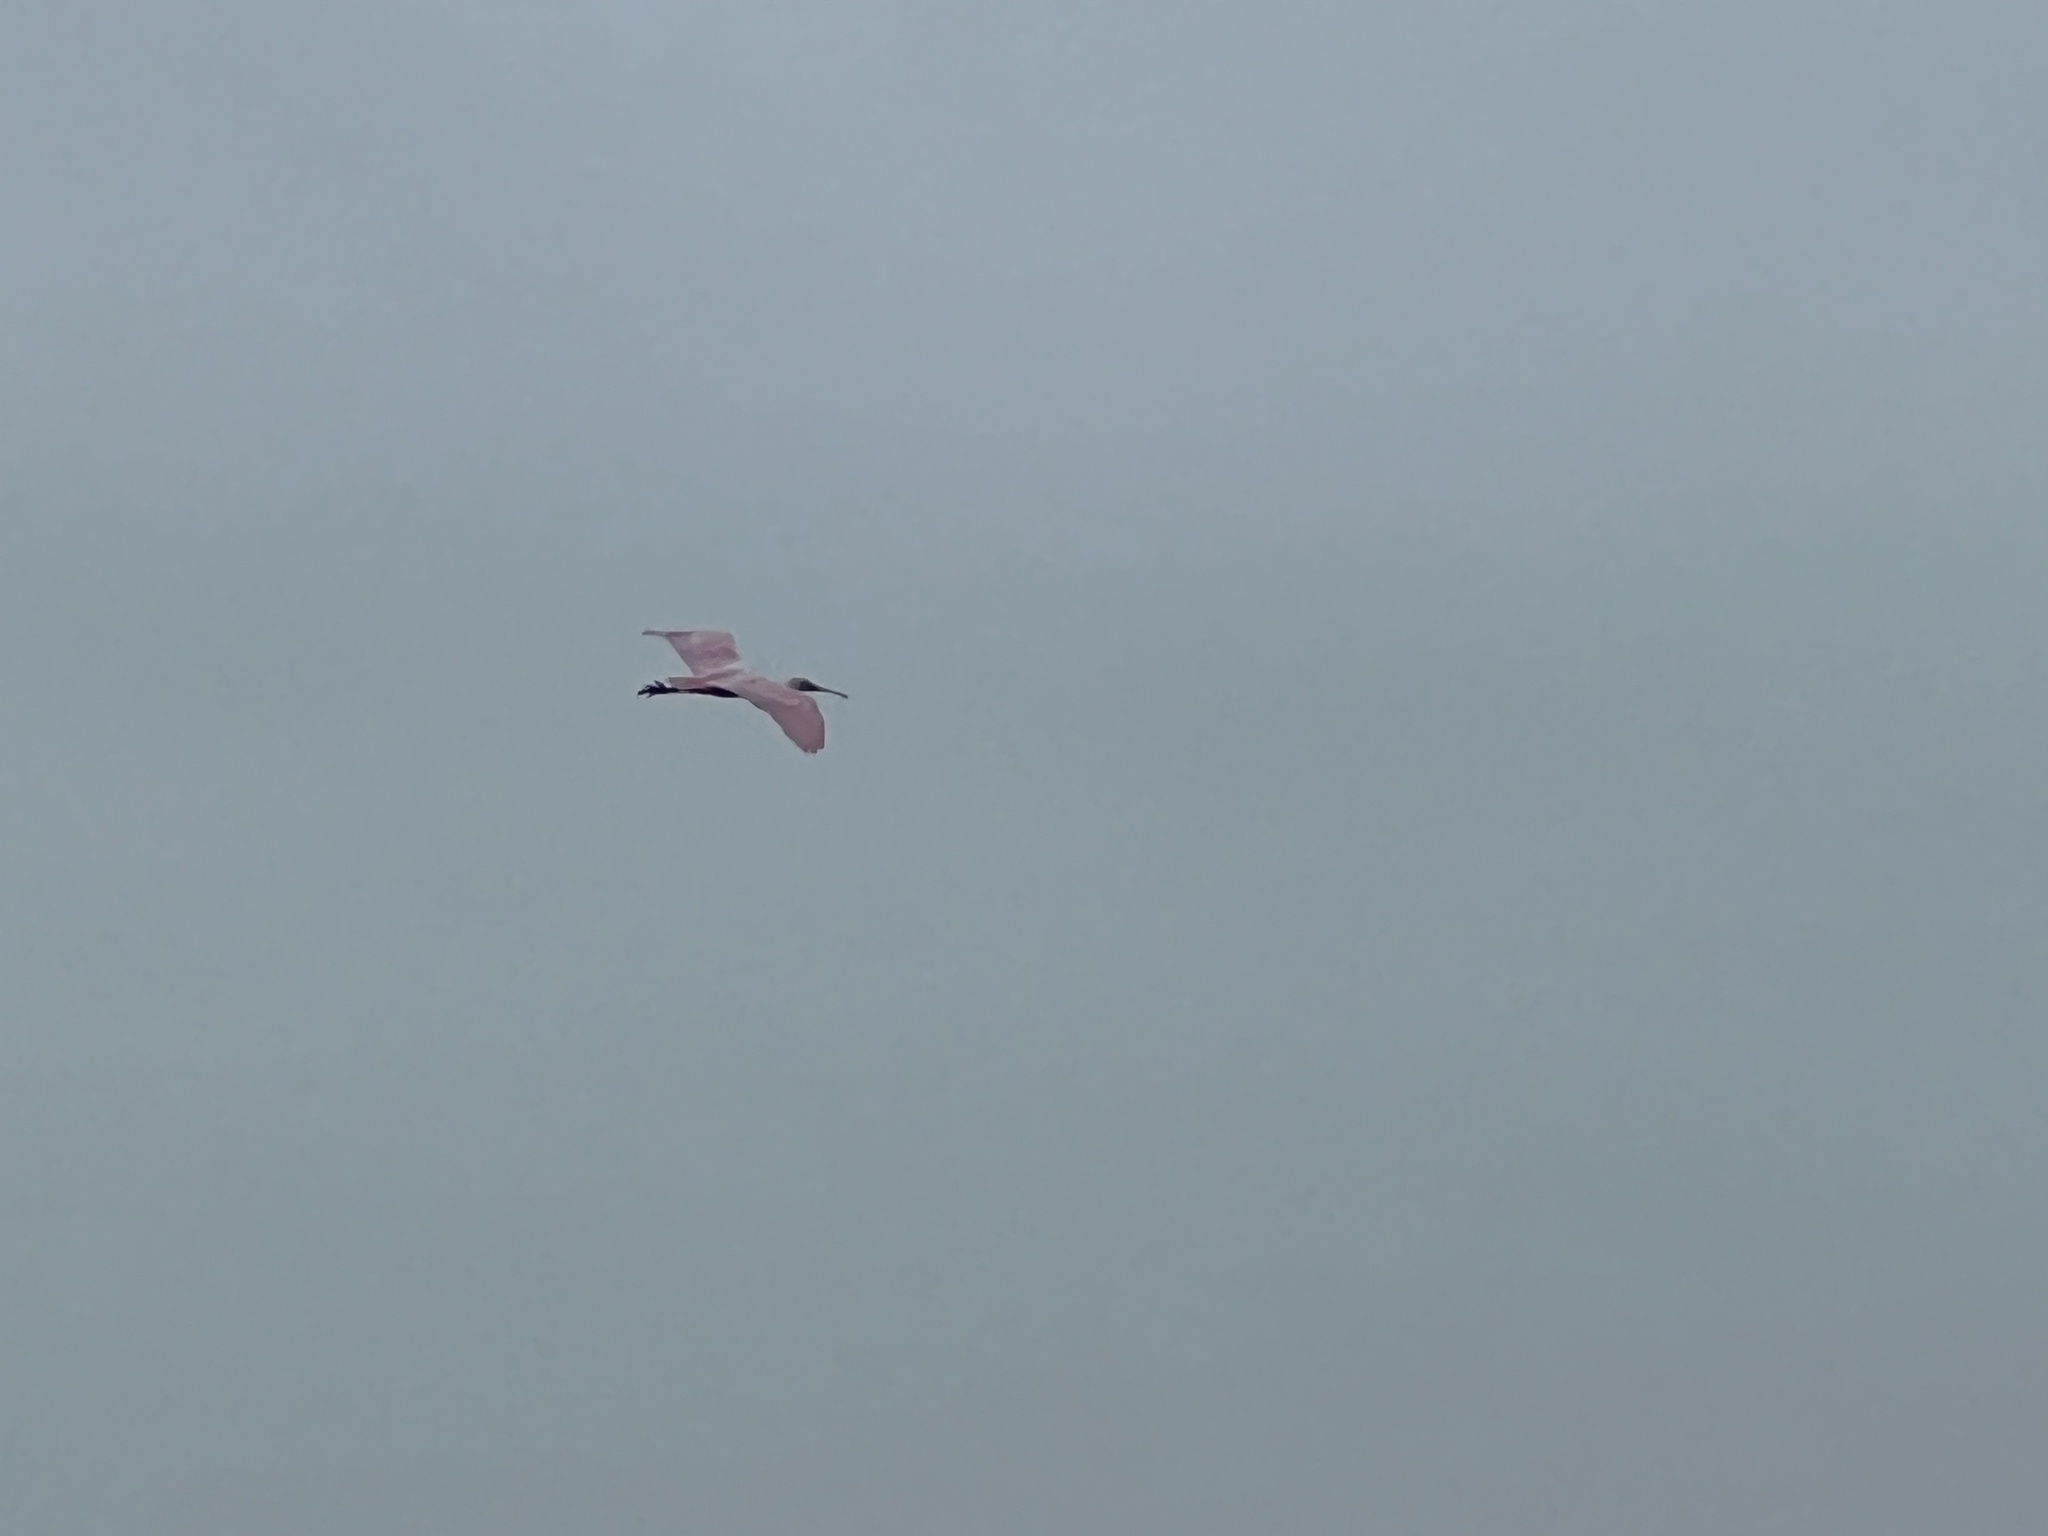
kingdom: Animalia
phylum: Chordata
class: Aves
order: Pelecaniformes
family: Threskiornithidae
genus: Platalea
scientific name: Platalea ajaja
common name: Roseate spoonbill
